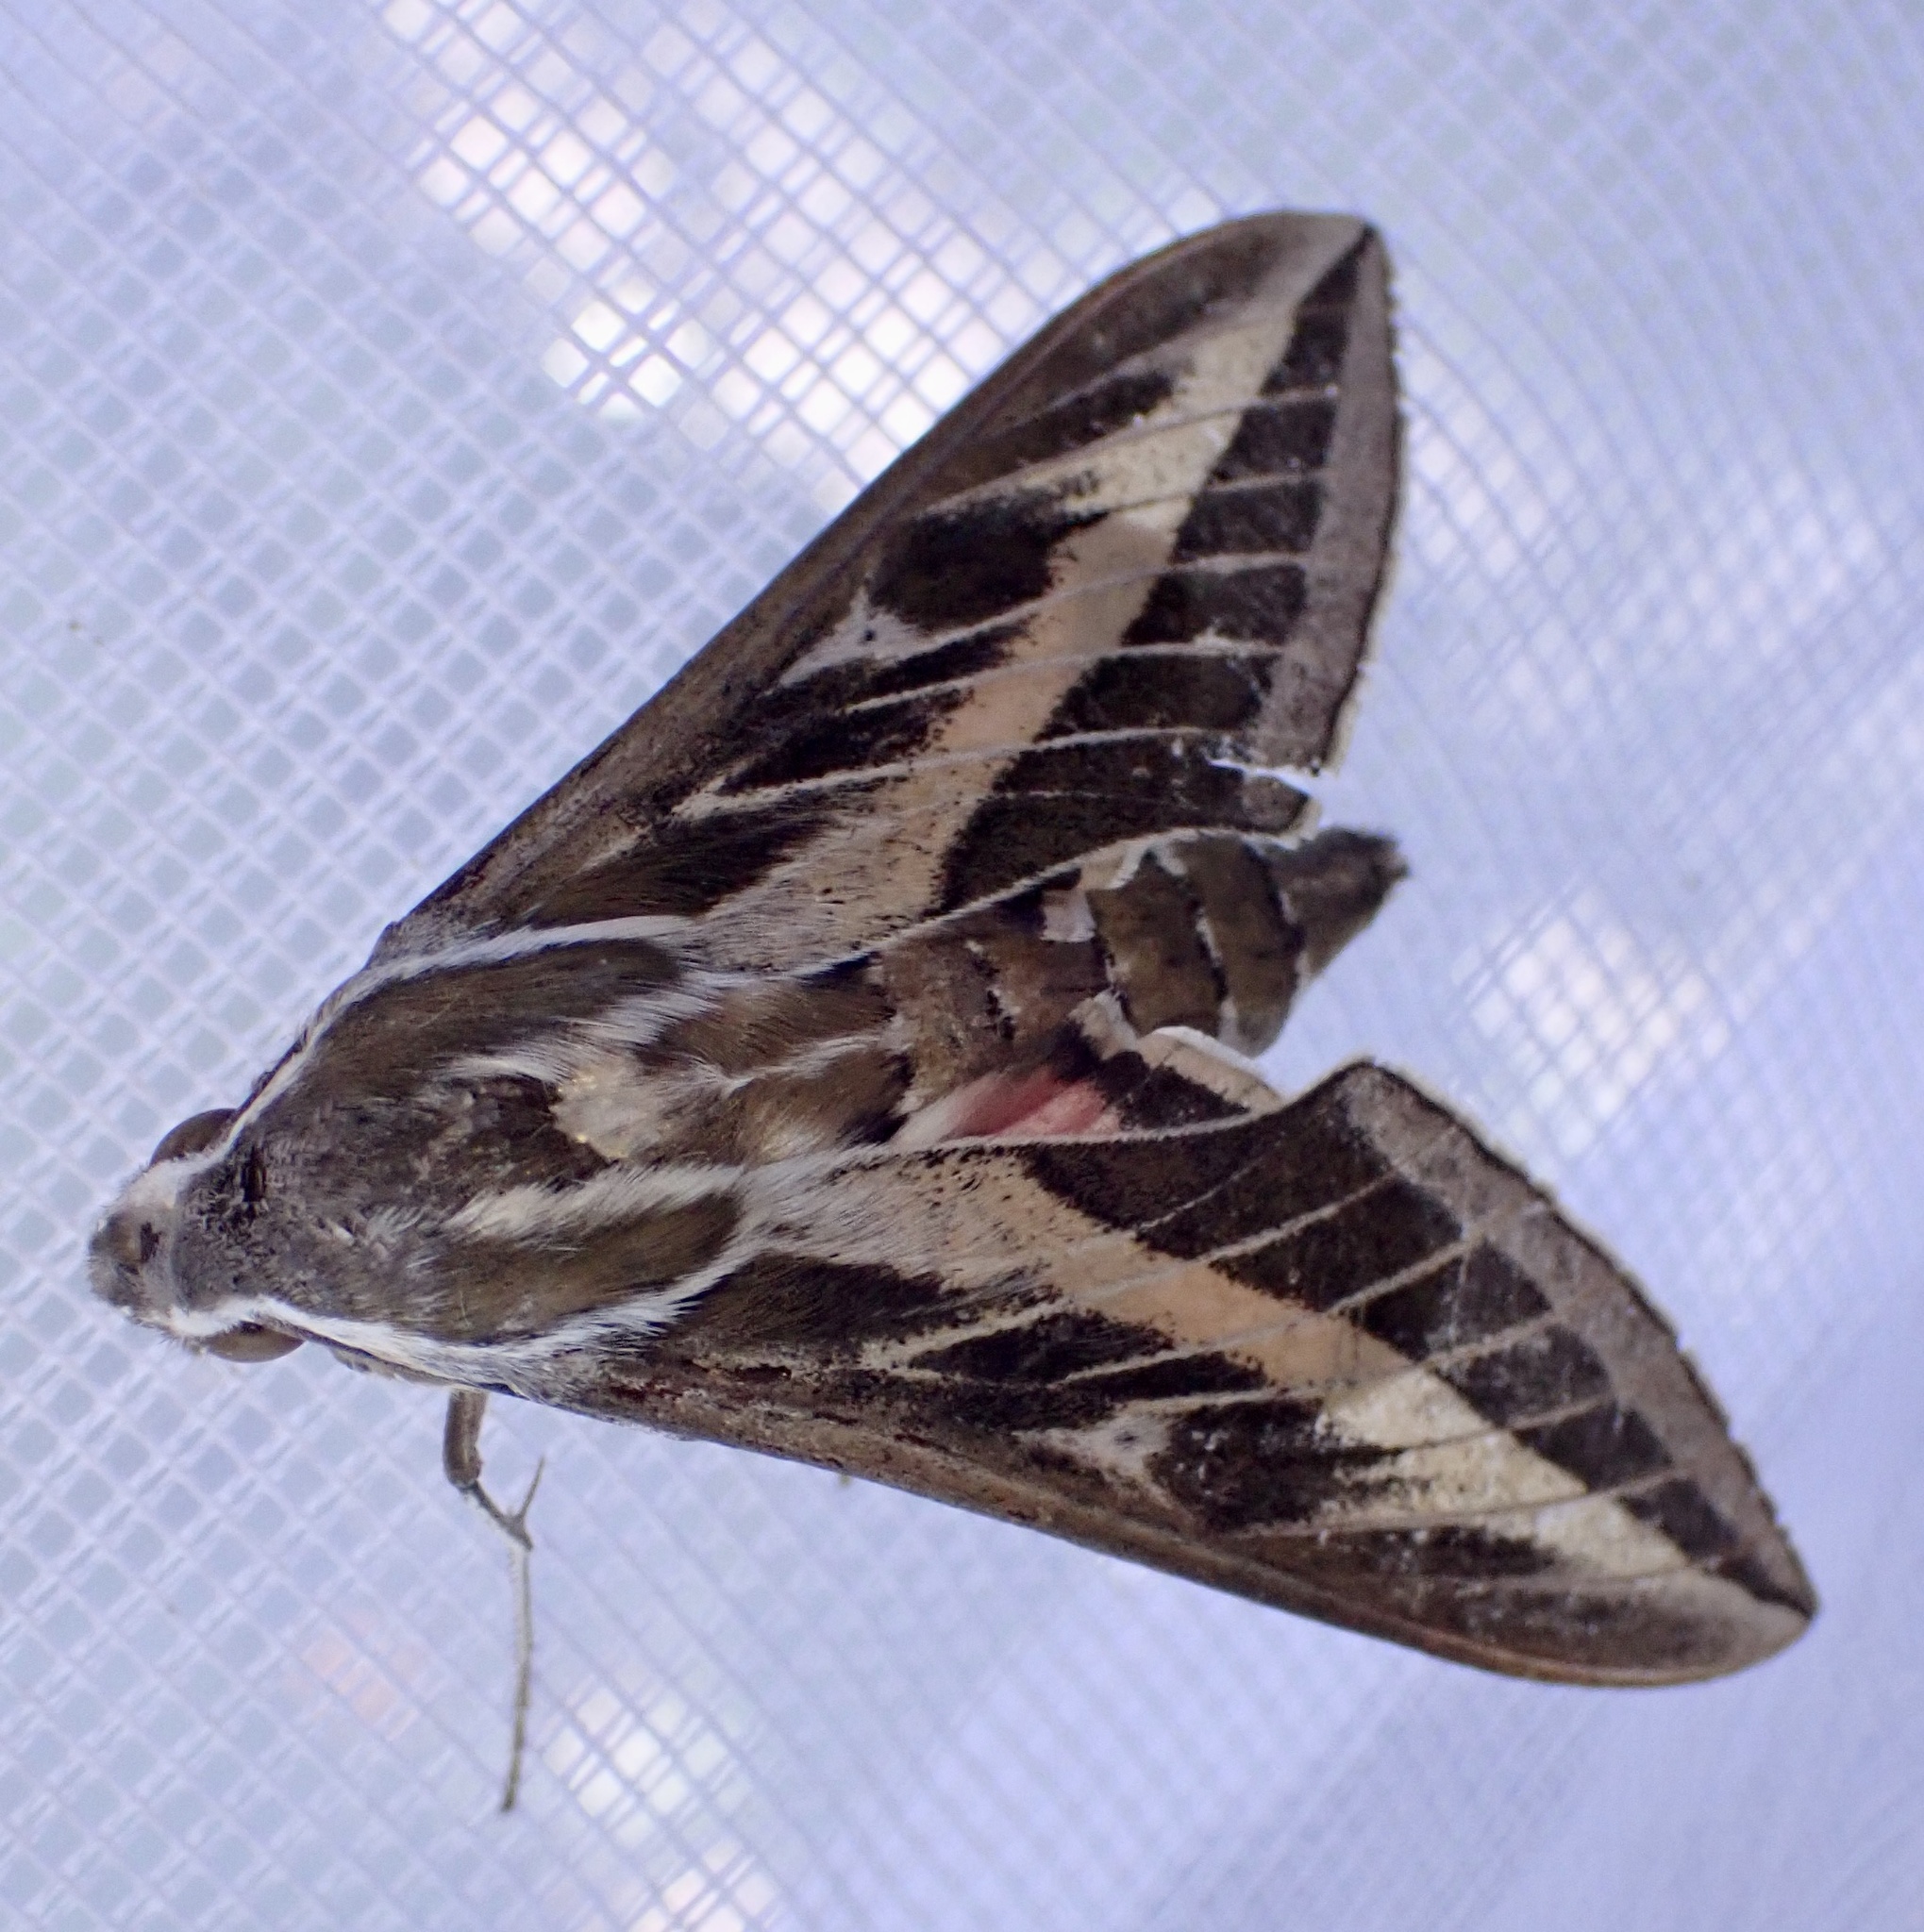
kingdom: Animalia
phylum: Arthropoda
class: Insecta
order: Lepidoptera
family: Sphingidae
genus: Hyles
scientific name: Hyles livornica
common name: Striped hawk-moth
